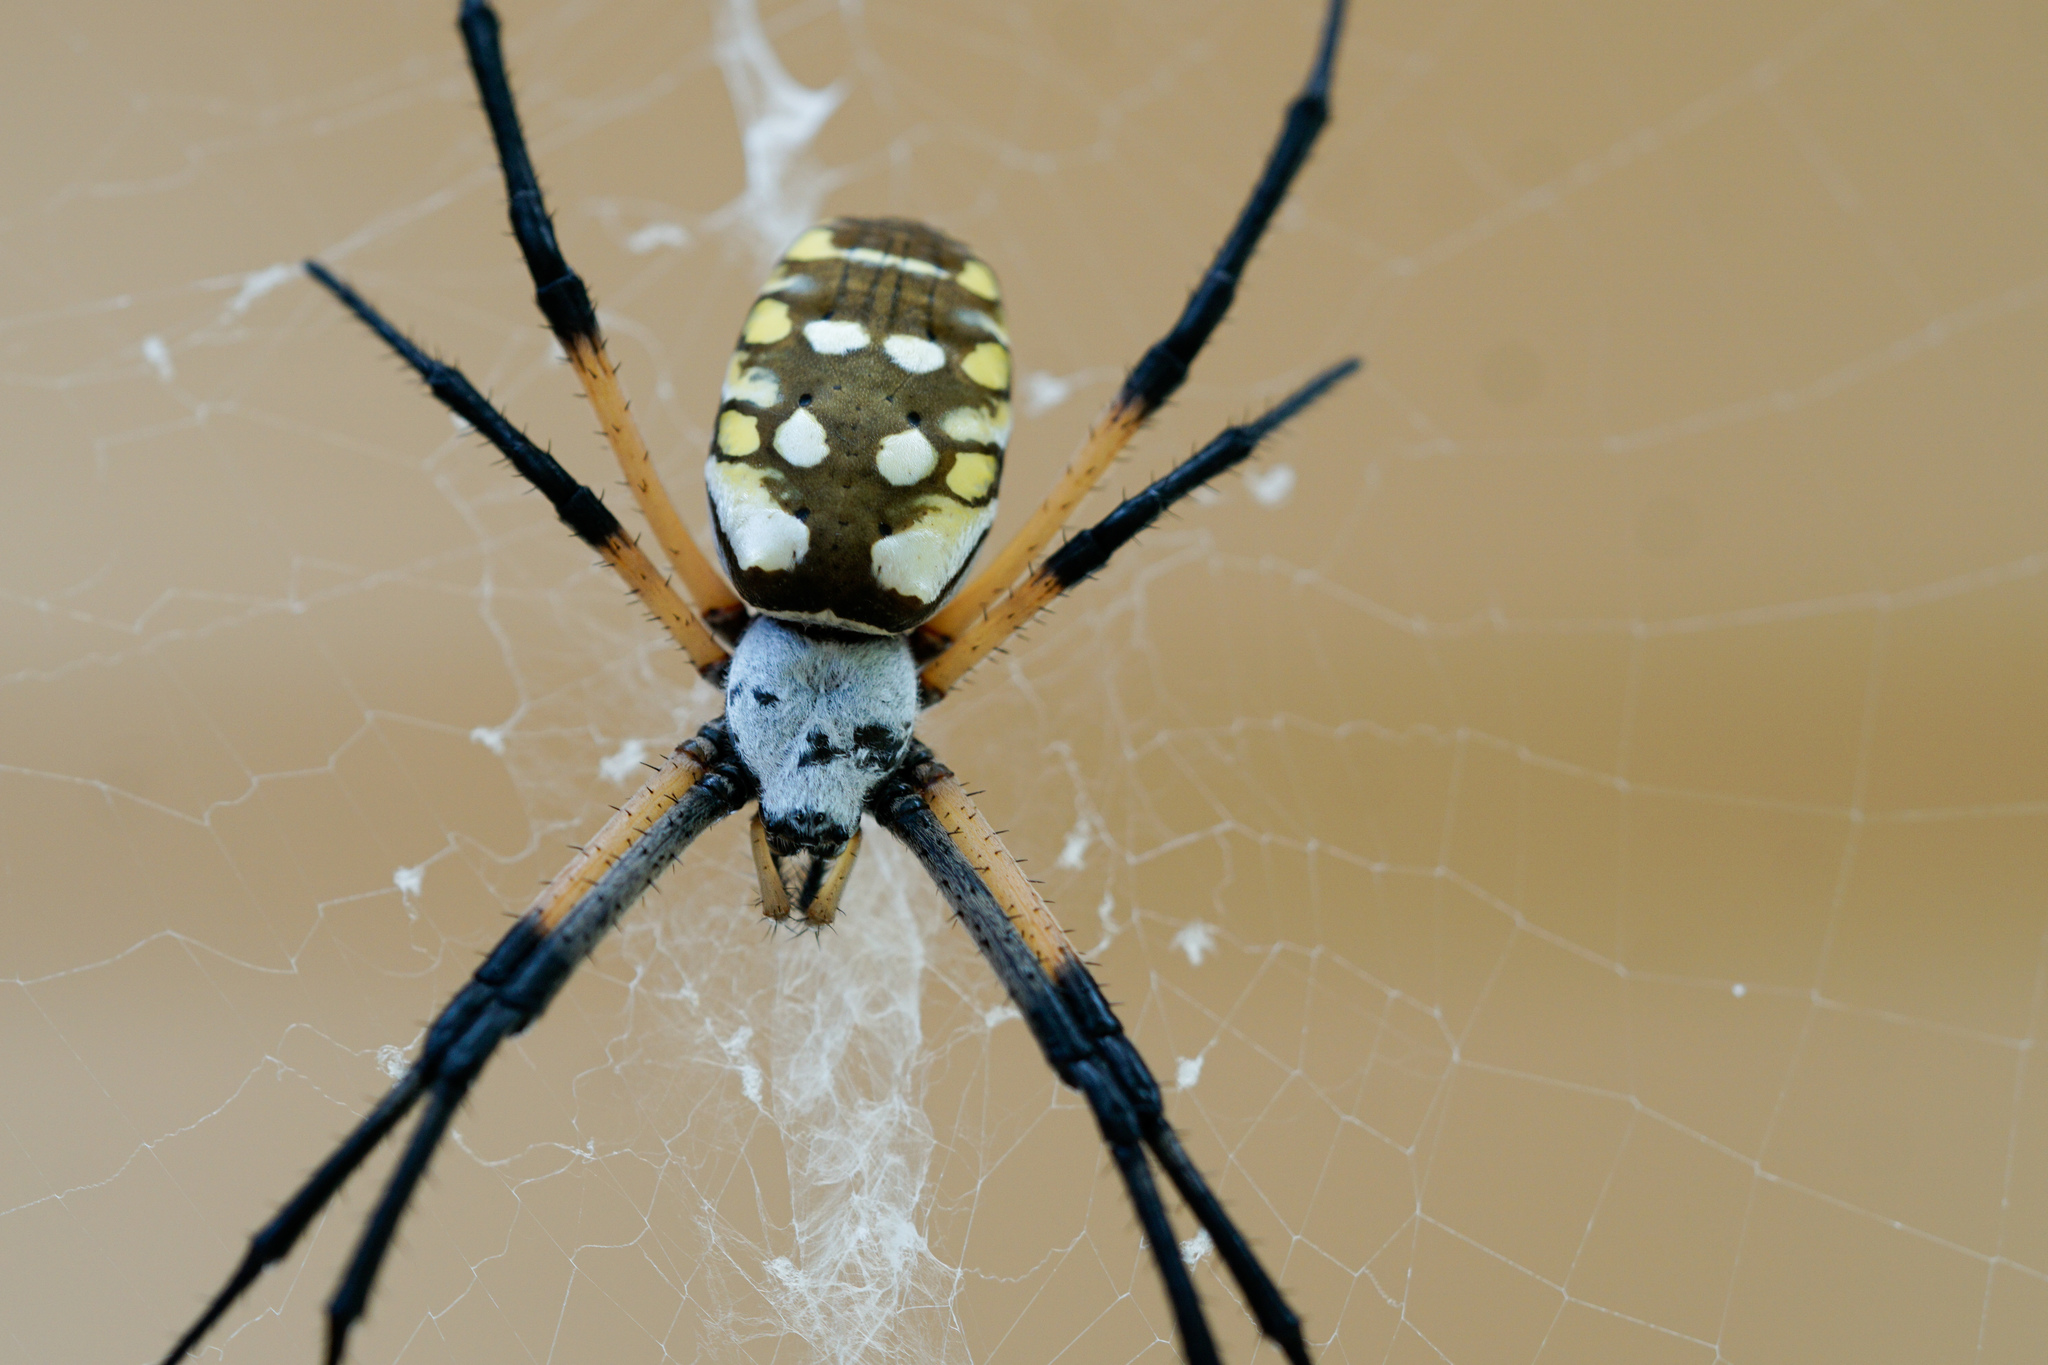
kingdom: Animalia
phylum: Arthropoda
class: Arachnida
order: Araneae
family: Araneidae
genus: Argiope
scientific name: Argiope aurantia
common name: Orb weavers
